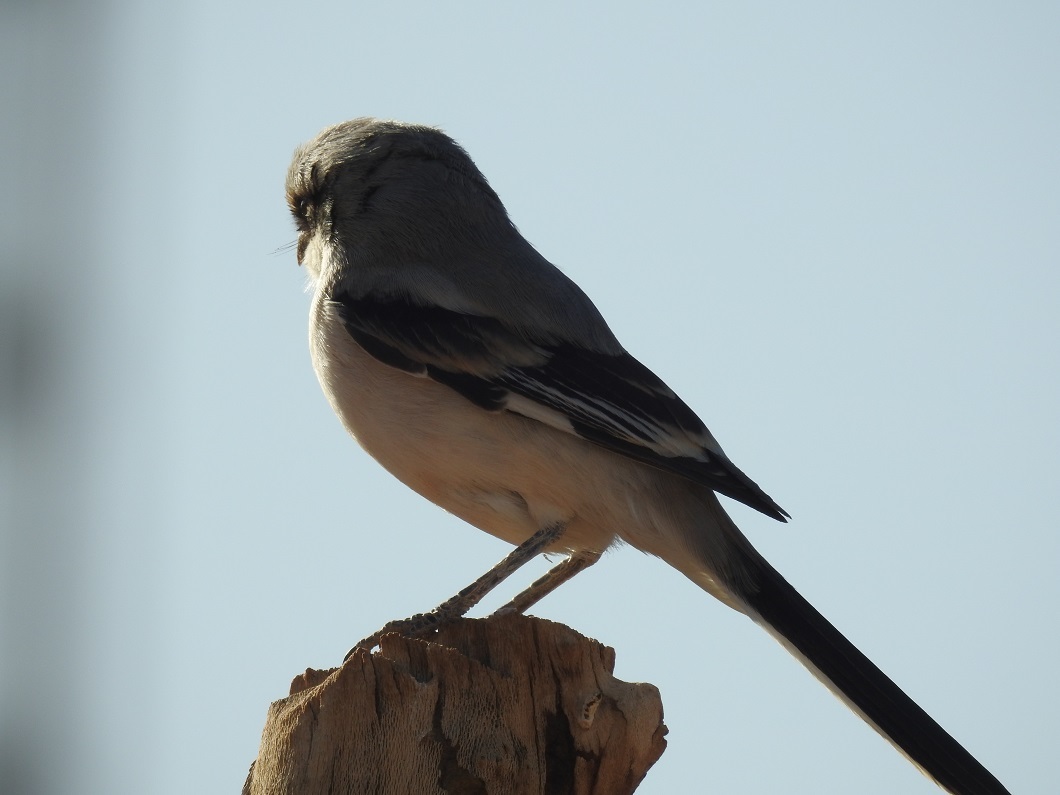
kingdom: Animalia
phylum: Chordata
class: Aves
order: Passeriformes
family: Laniidae
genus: Lanius
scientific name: Lanius excubitor
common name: Great grey shrike
